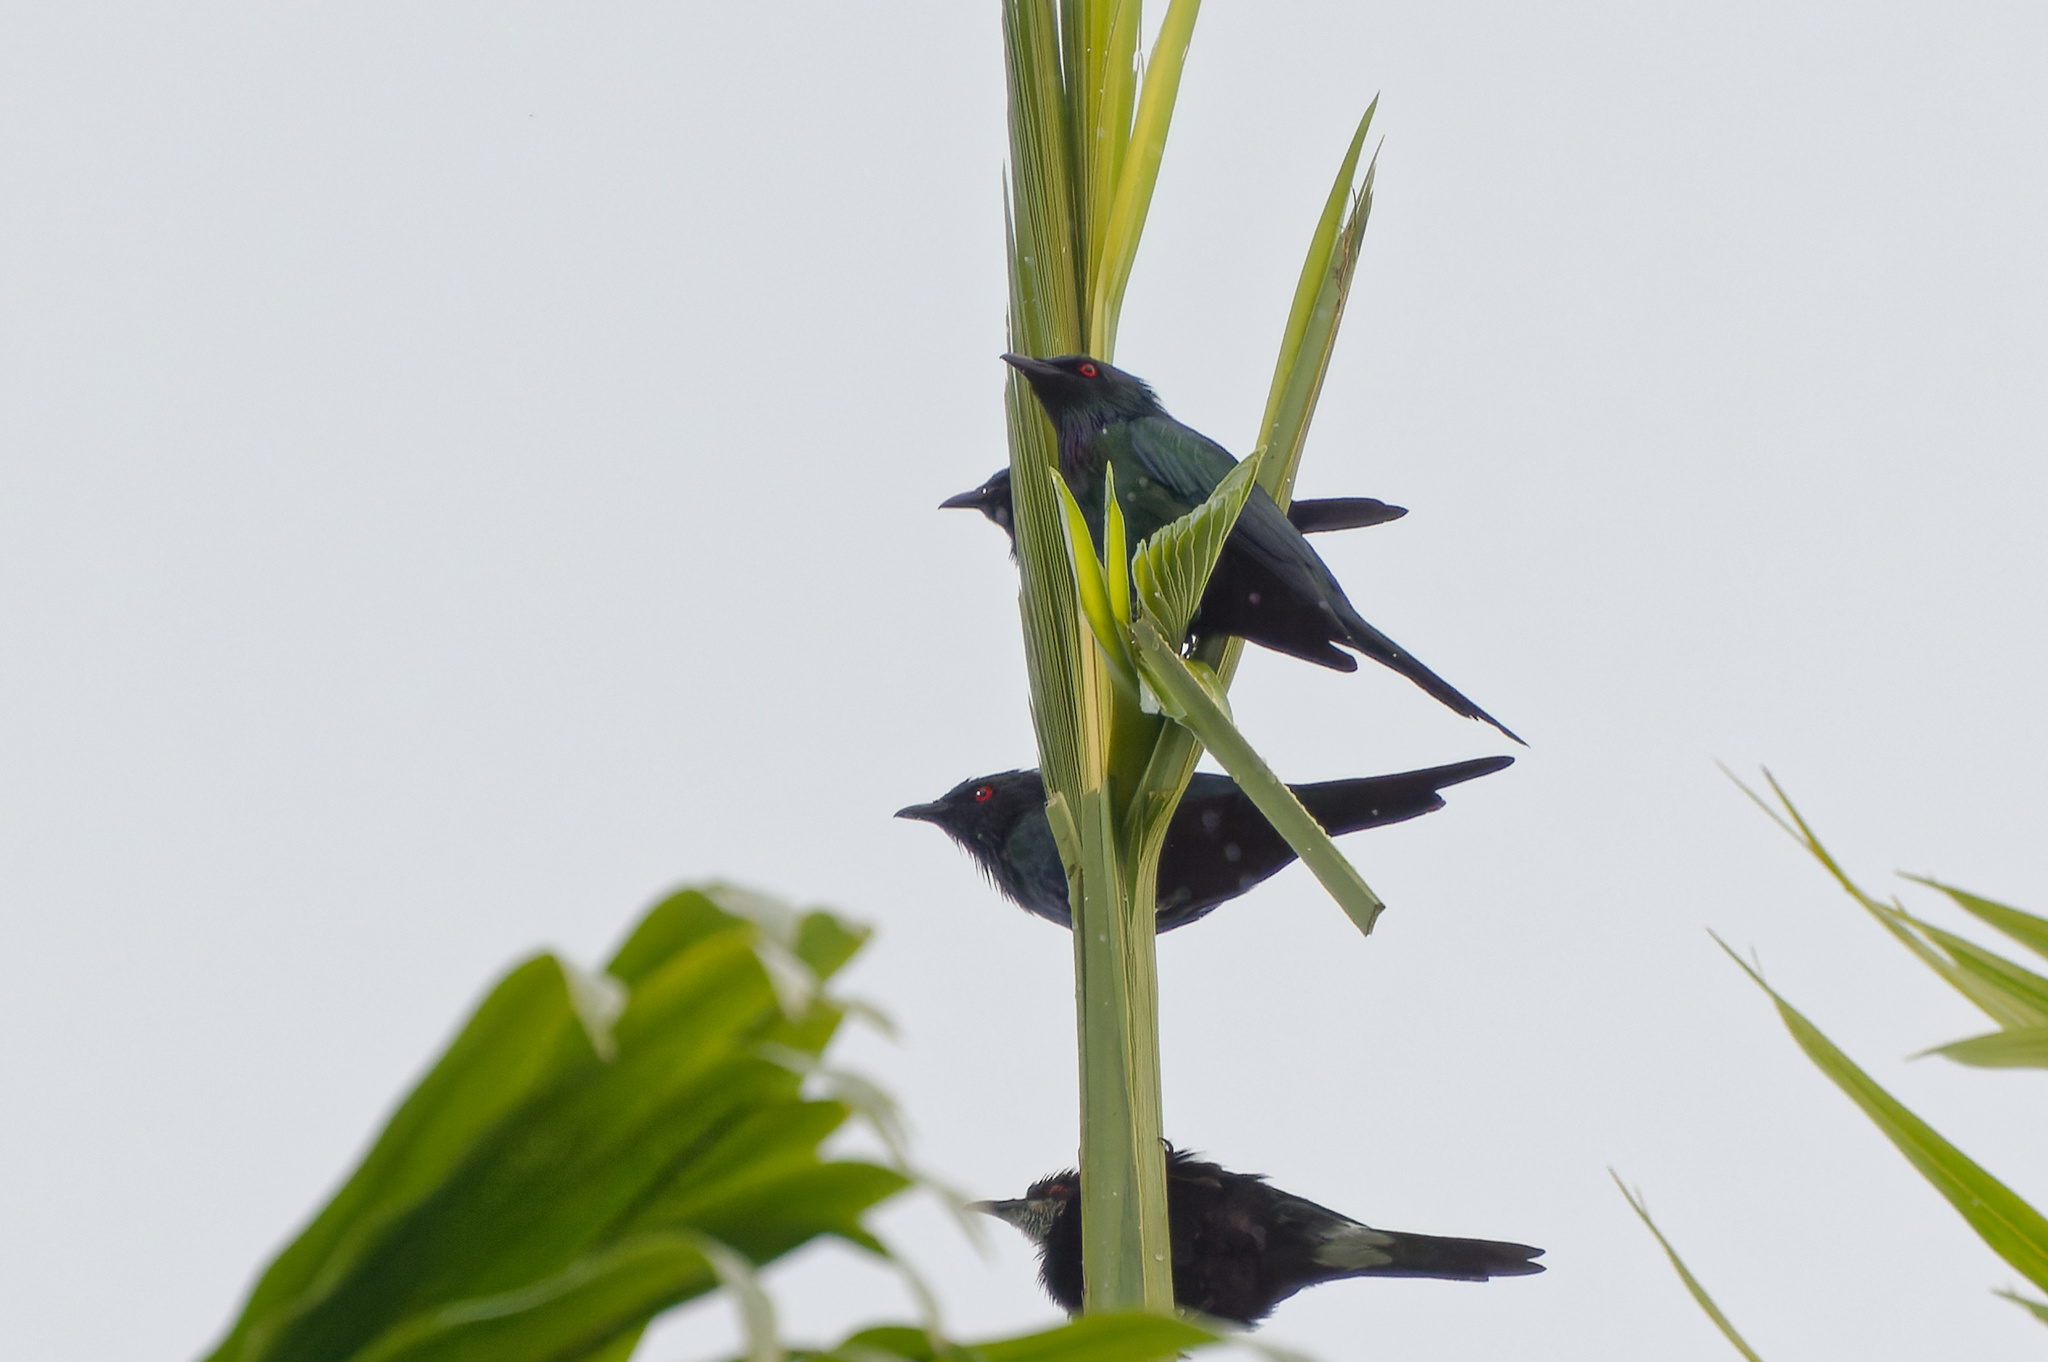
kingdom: Animalia
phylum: Chordata
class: Aves
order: Passeriformes
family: Sturnidae
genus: Aplonis
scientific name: Aplonis metallica
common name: Metallic starling
